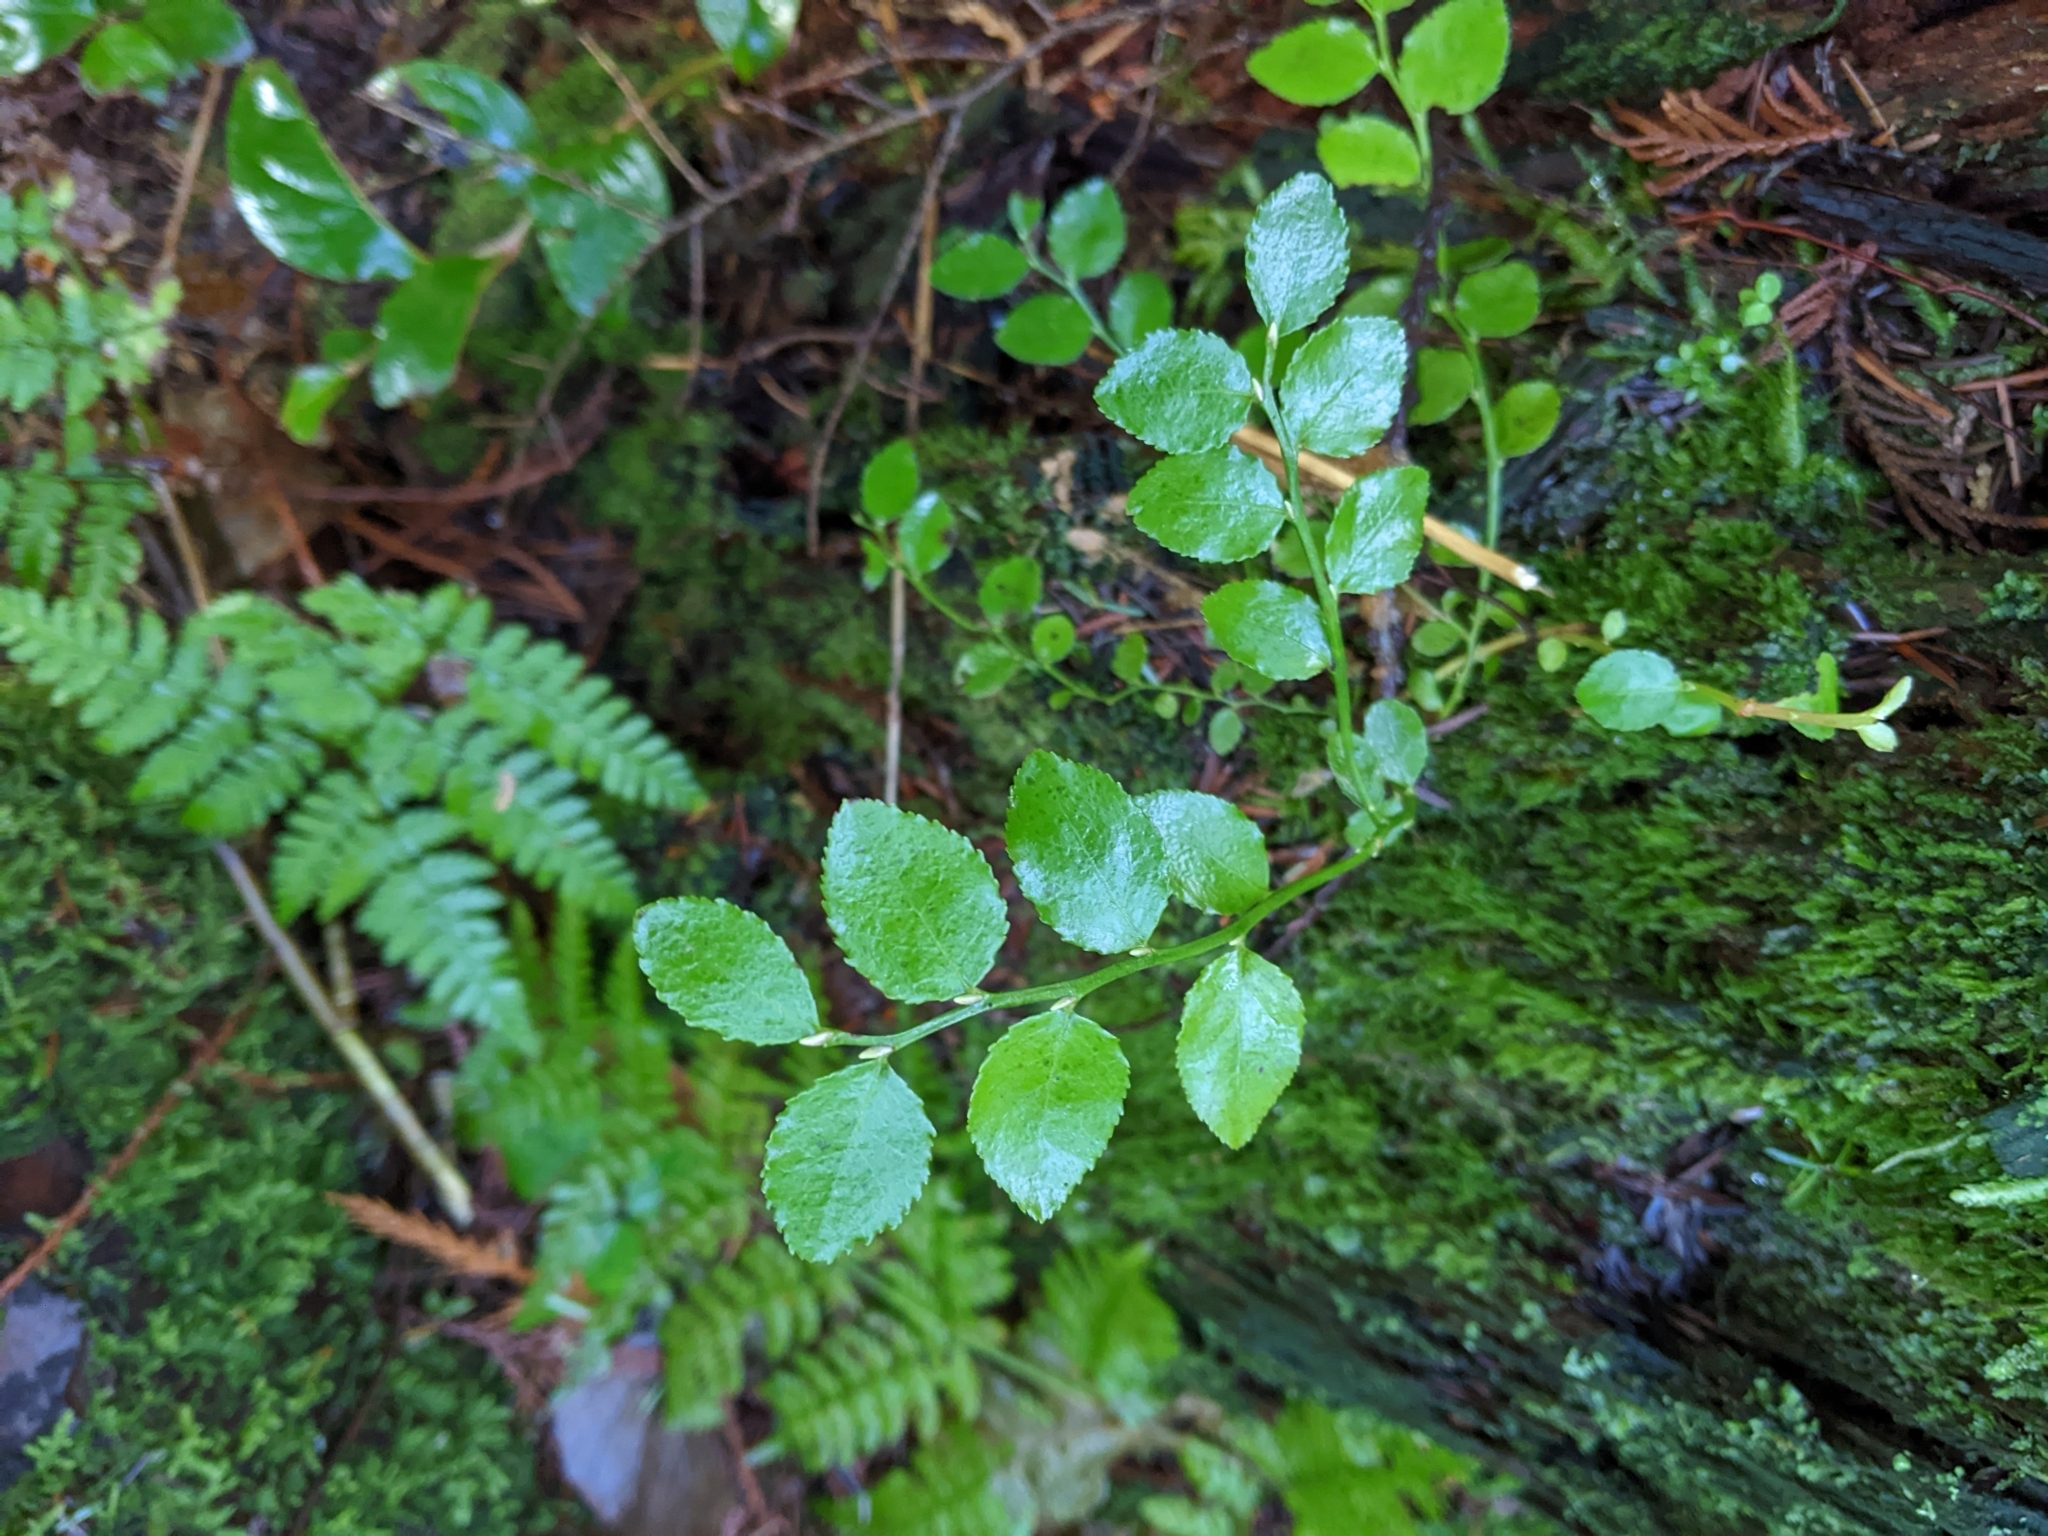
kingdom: Plantae
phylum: Tracheophyta
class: Magnoliopsida
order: Ericales
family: Ericaceae
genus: Vaccinium
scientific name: Vaccinium parvifolium
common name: Red-huckleberry
